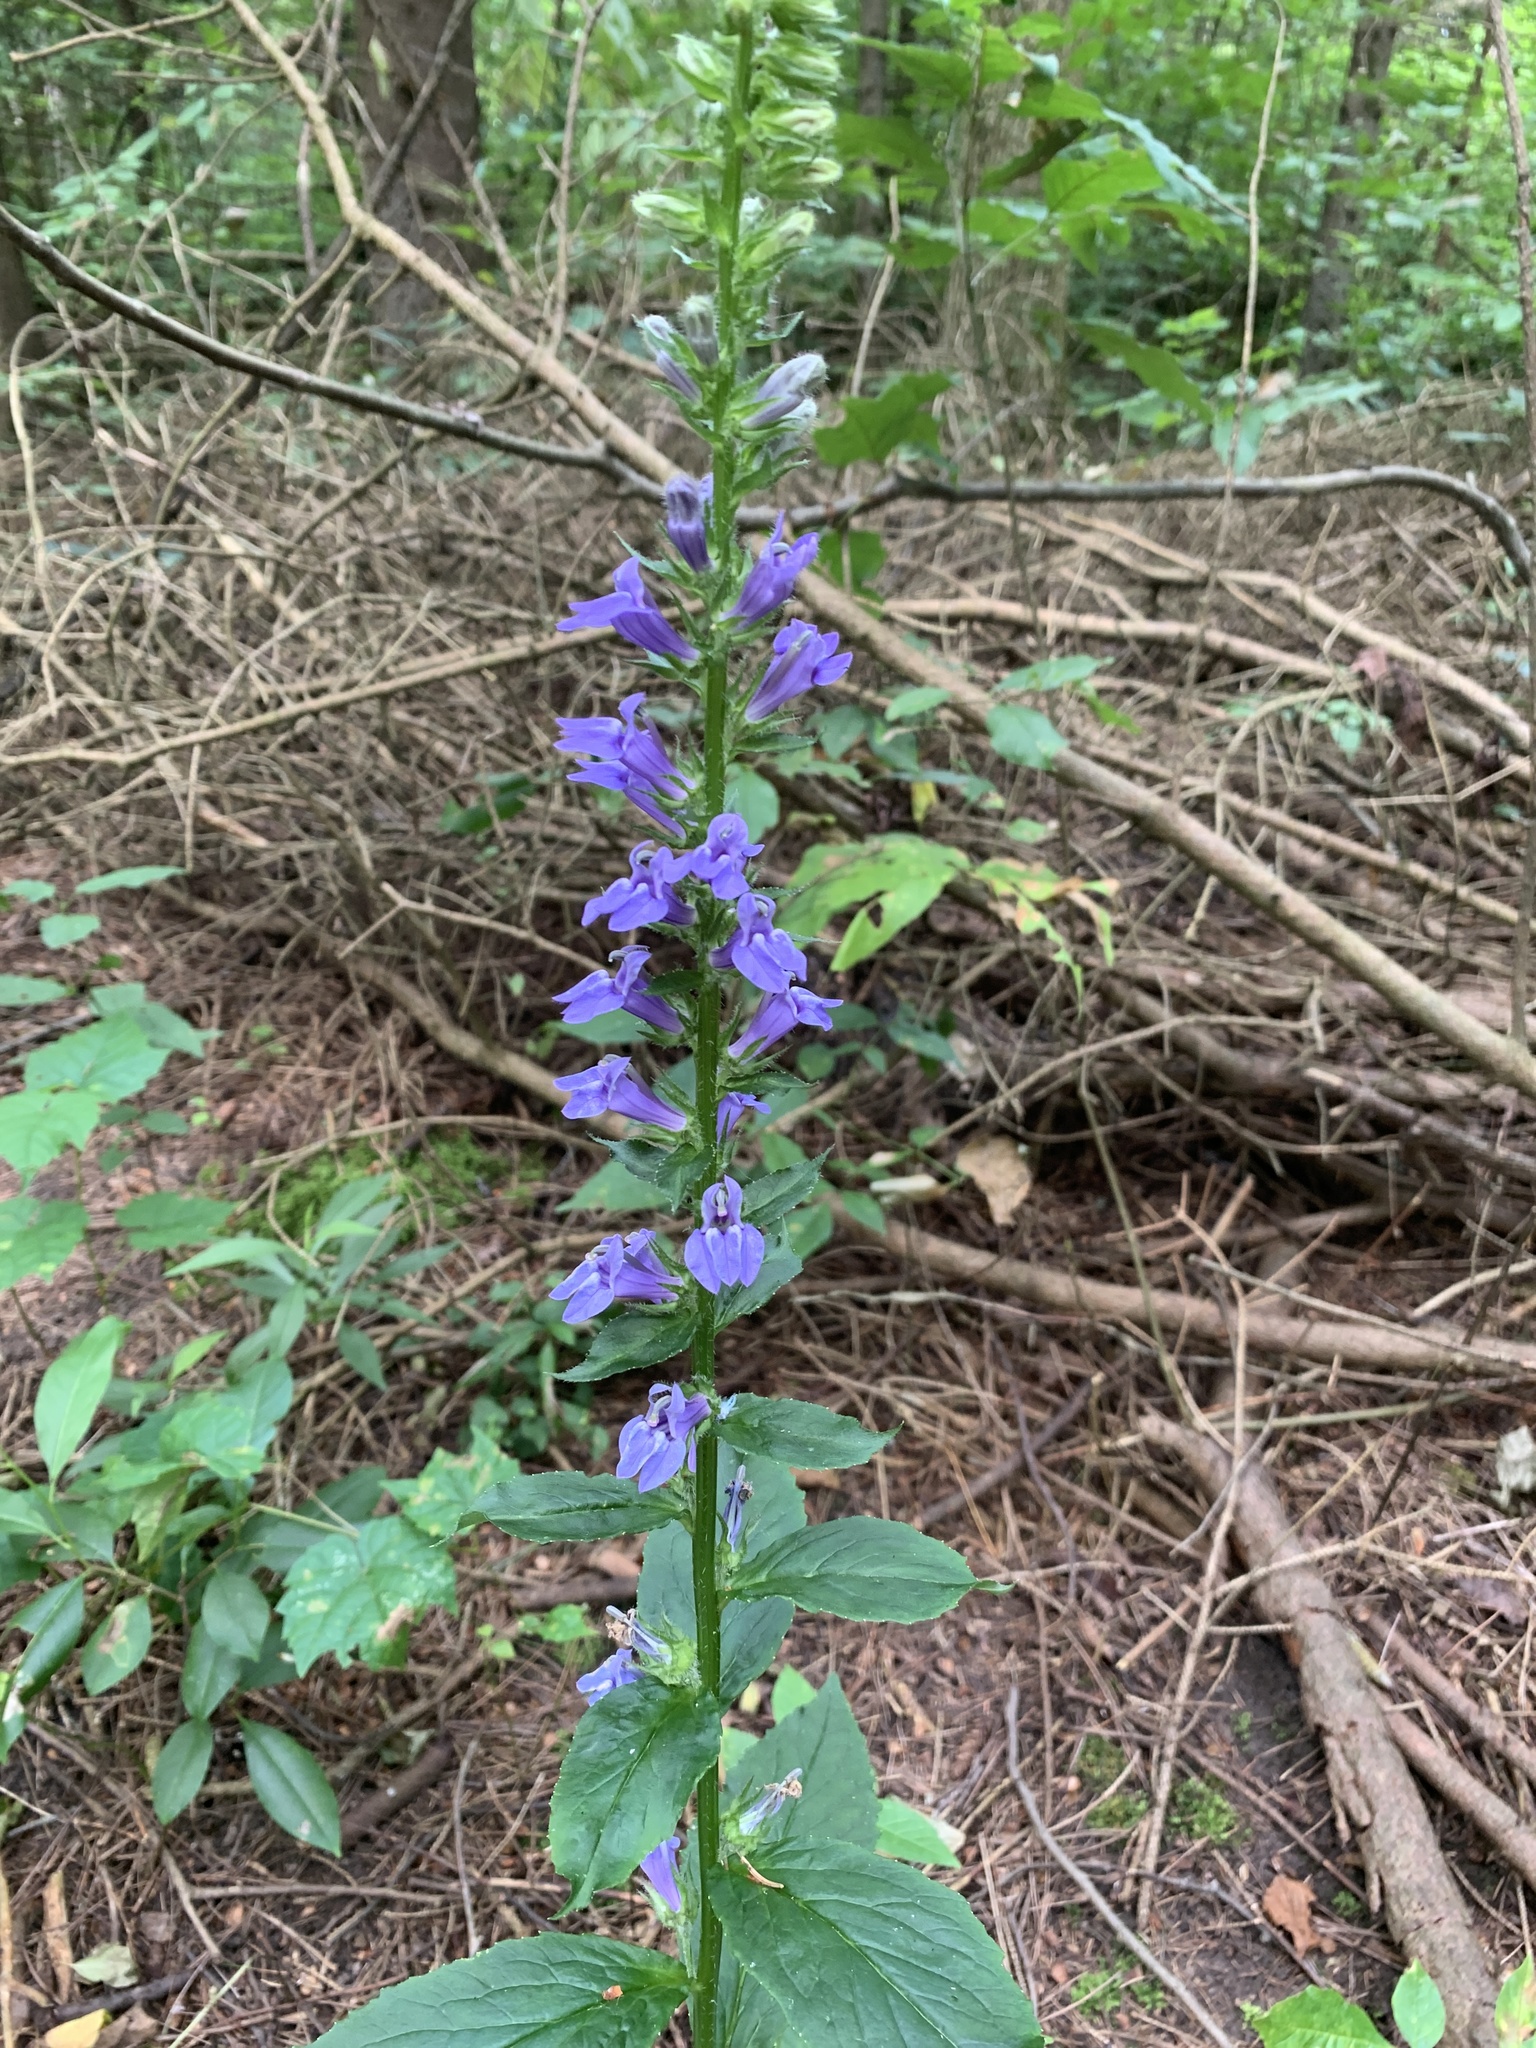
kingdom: Plantae
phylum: Tracheophyta
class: Magnoliopsida
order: Asterales
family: Campanulaceae
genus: Lobelia
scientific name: Lobelia siphilitica
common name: Great lobelia
